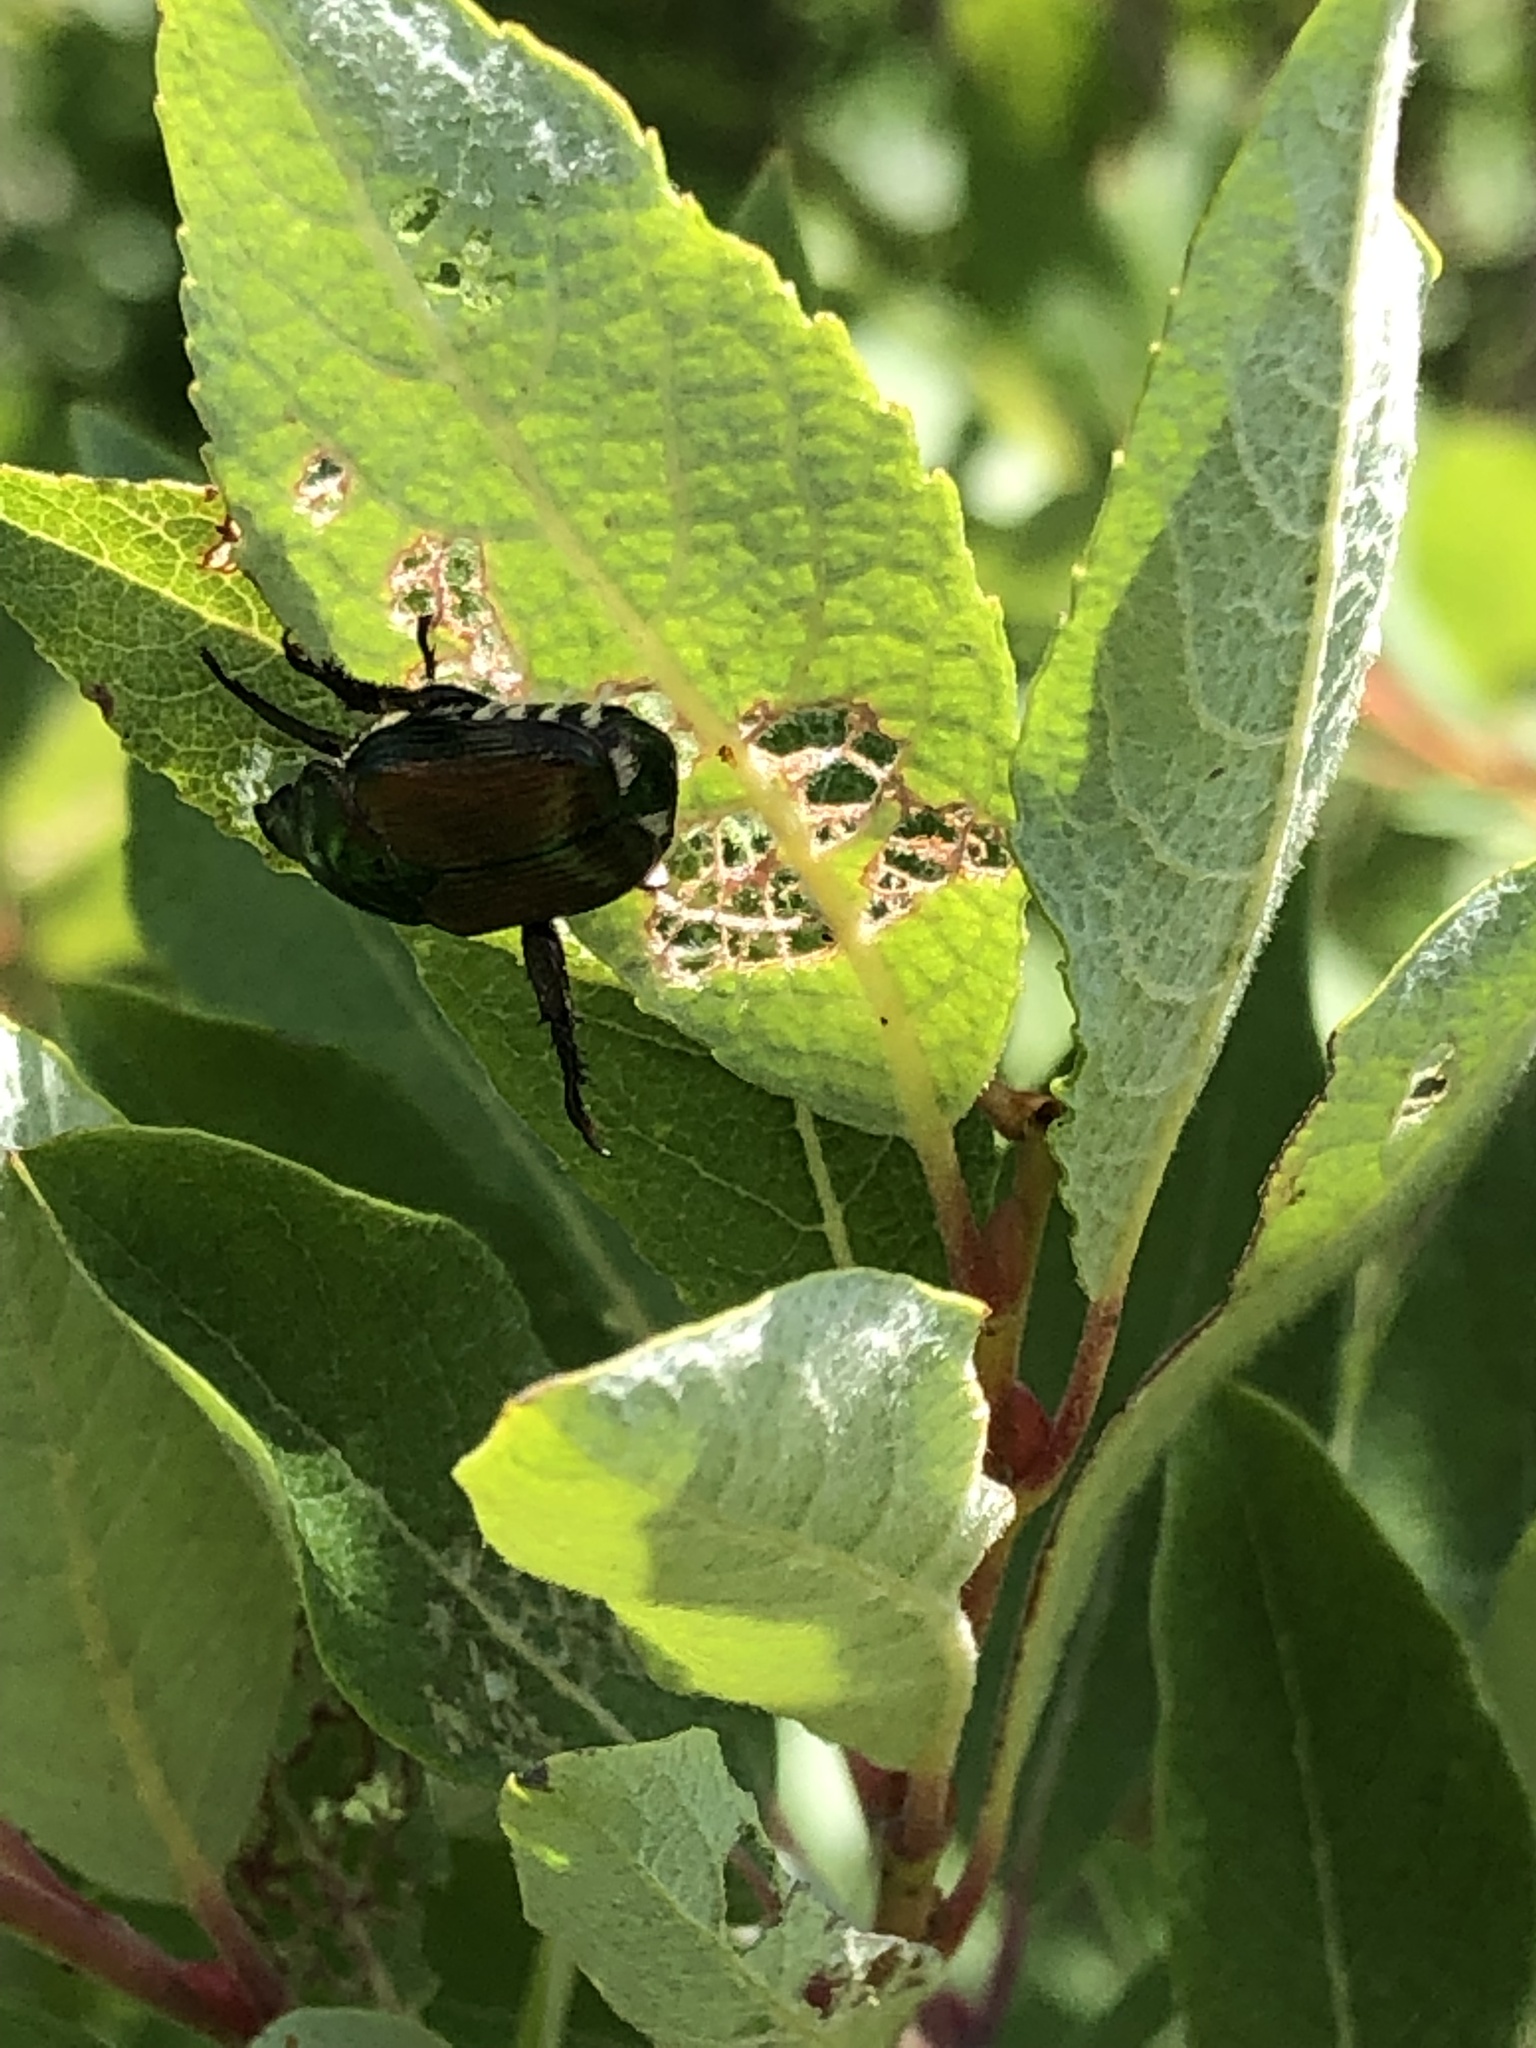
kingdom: Animalia
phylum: Arthropoda
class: Insecta
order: Coleoptera
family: Scarabaeidae
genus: Popillia
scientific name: Popillia japonica
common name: Japanese beetle
